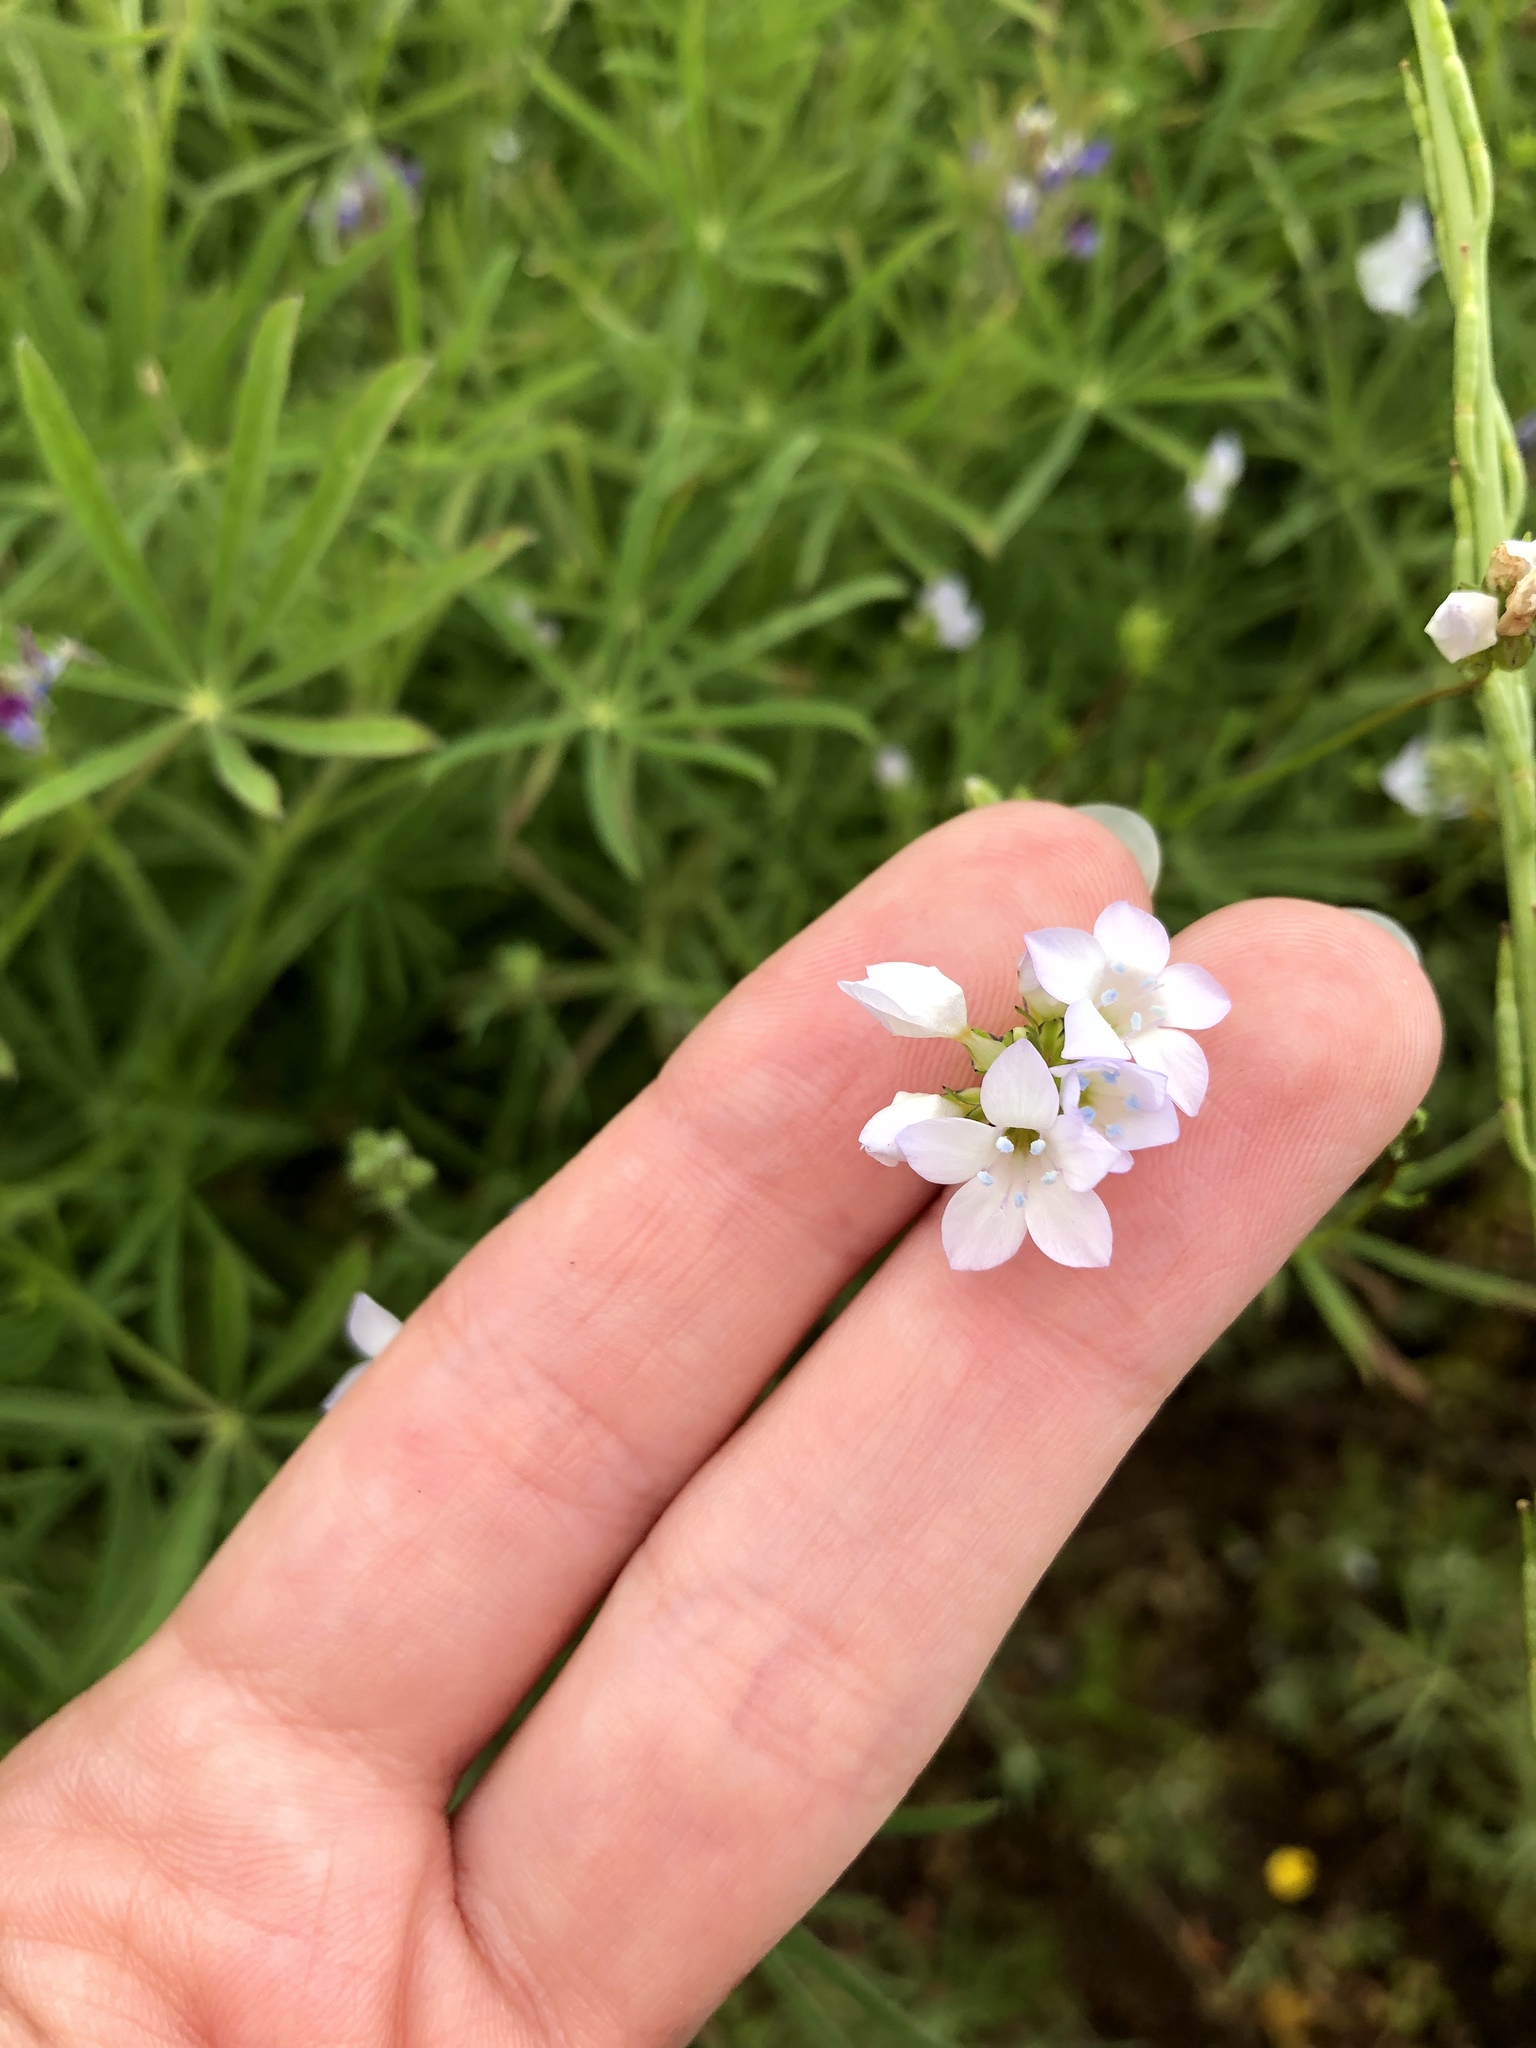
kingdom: Plantae
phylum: Tracheophyta
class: Magnoliopsida
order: Ericales
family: Polemoniaceae
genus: Gilia
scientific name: Gilia angelensis
